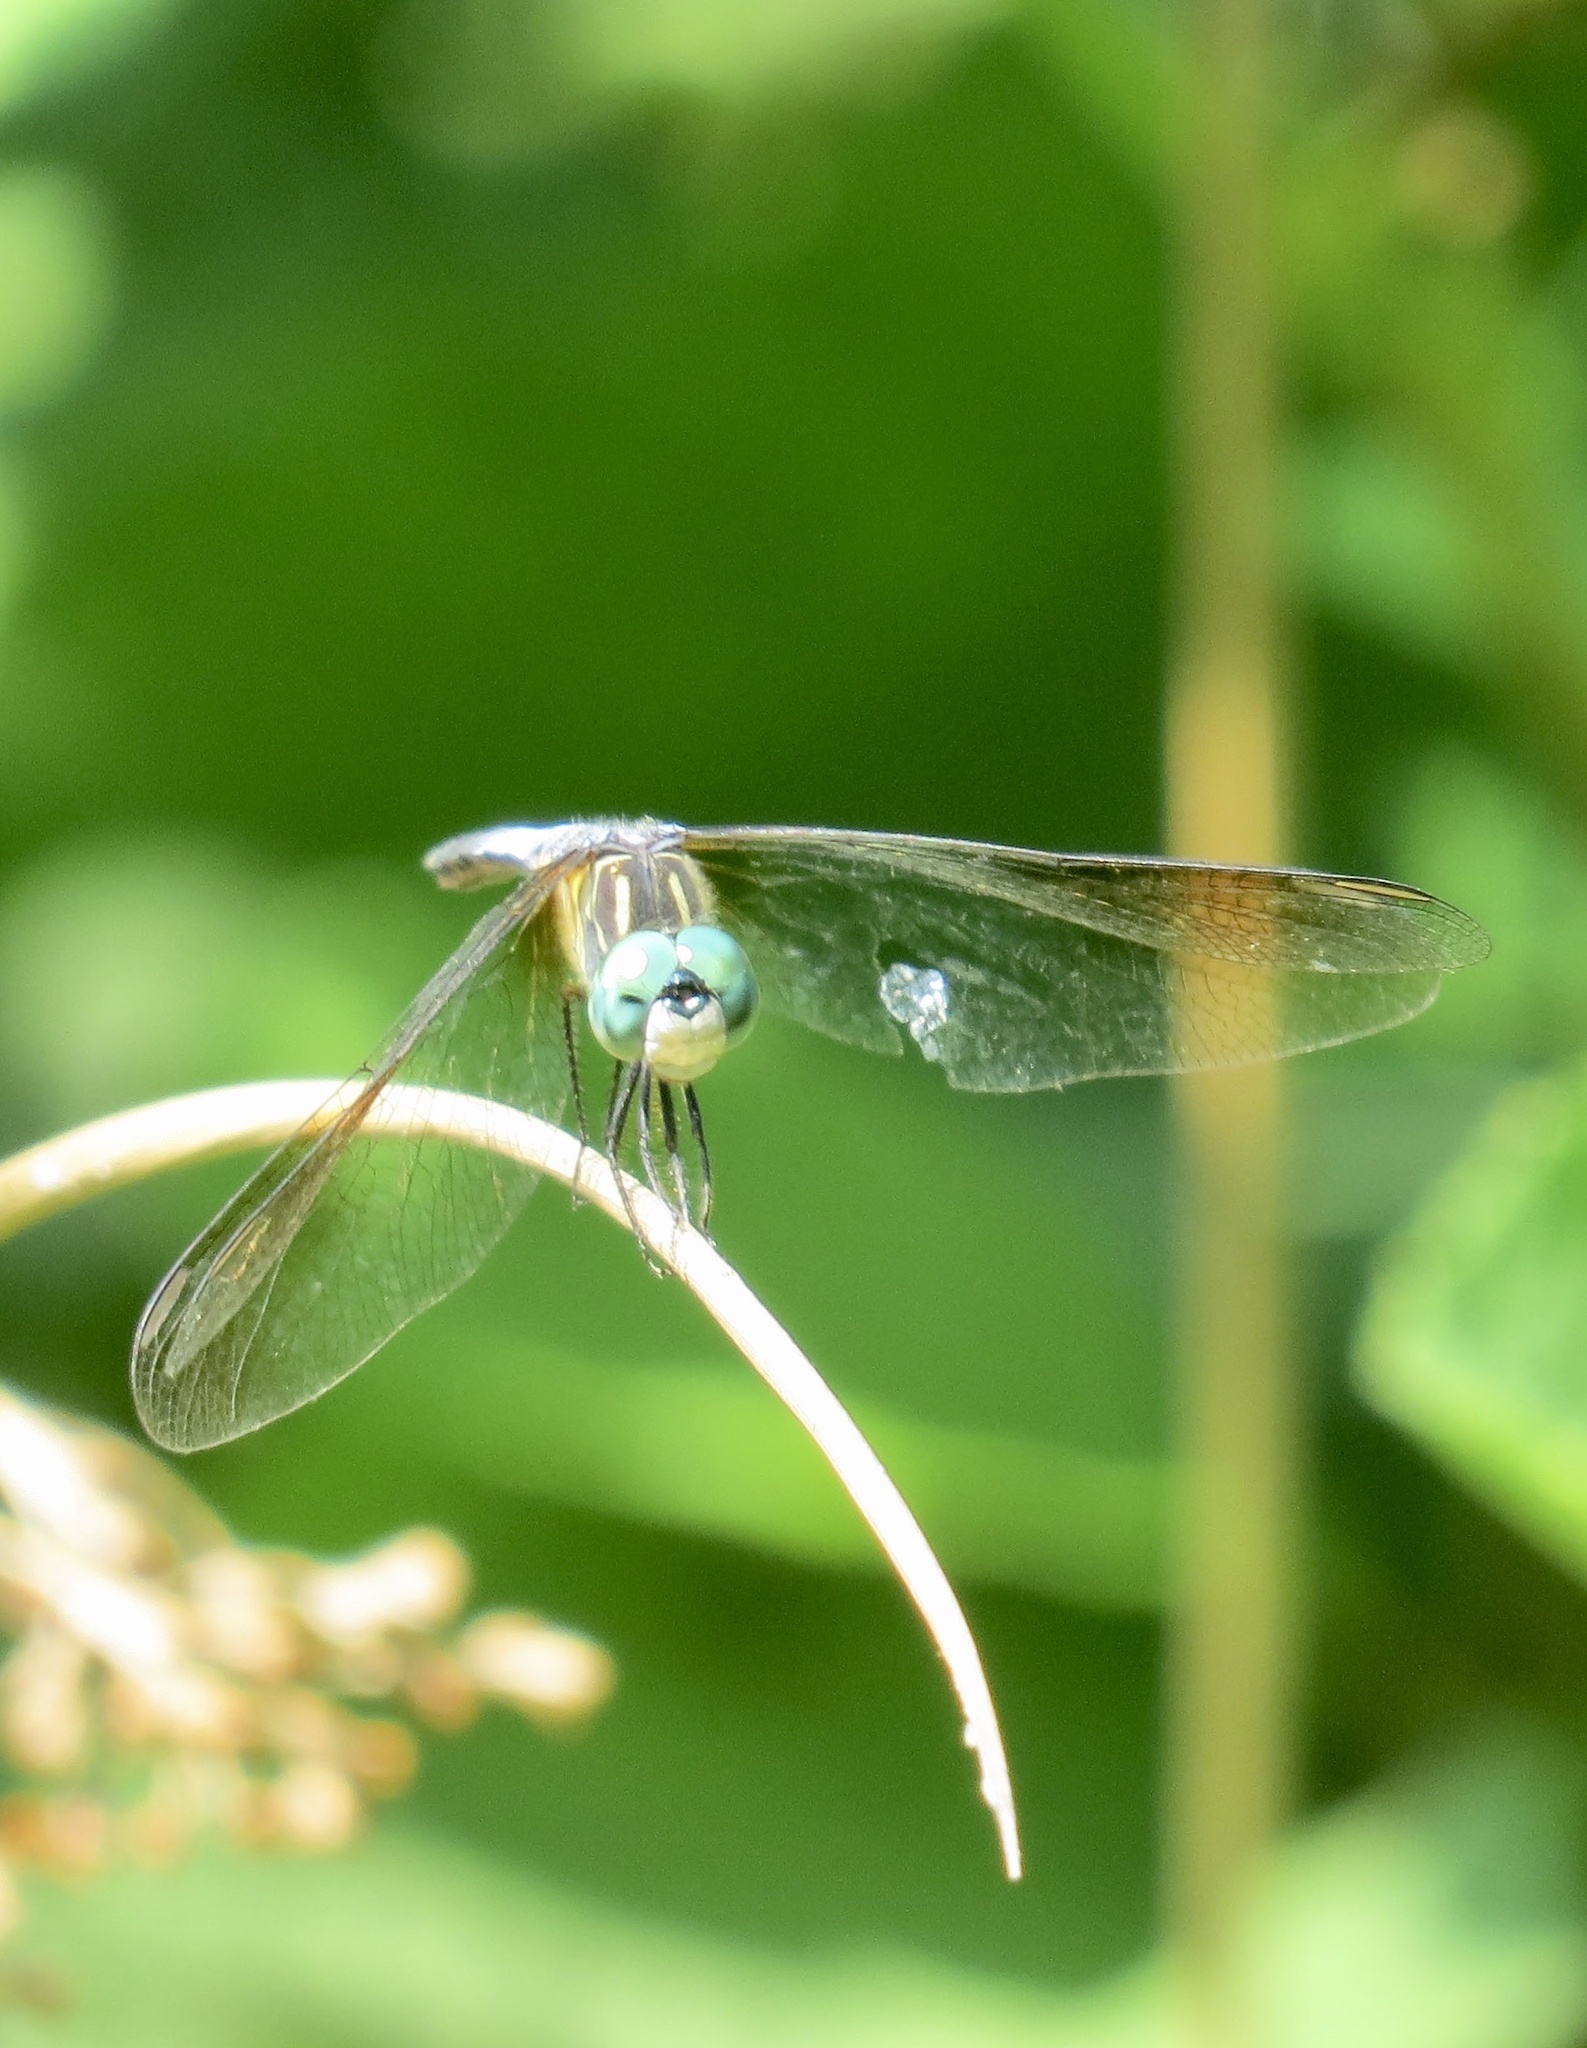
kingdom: Animalia
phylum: Arthropoda
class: Insecta
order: Odonata
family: Libellulidae
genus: Pachydiplax
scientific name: Pachydiplax longipennis
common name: Blue dasher
